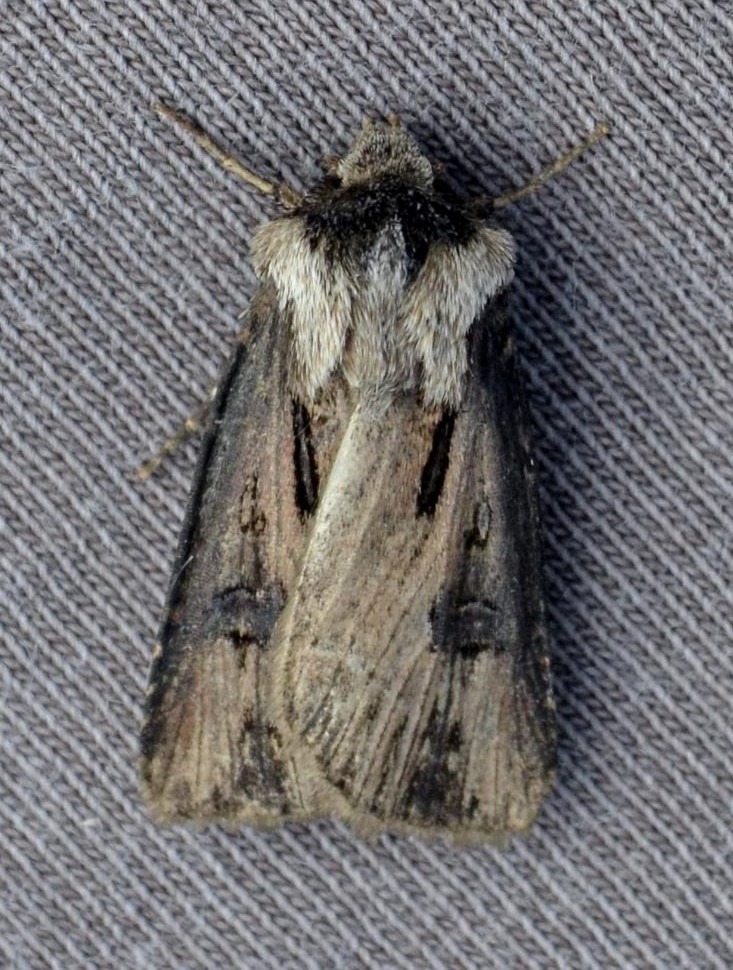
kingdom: Animalia
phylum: Arthropoda
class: Insecta
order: Lepidoptera
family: Noctuidae
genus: Agrotis
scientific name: Agrotis venerabilis
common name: Venerable dart
